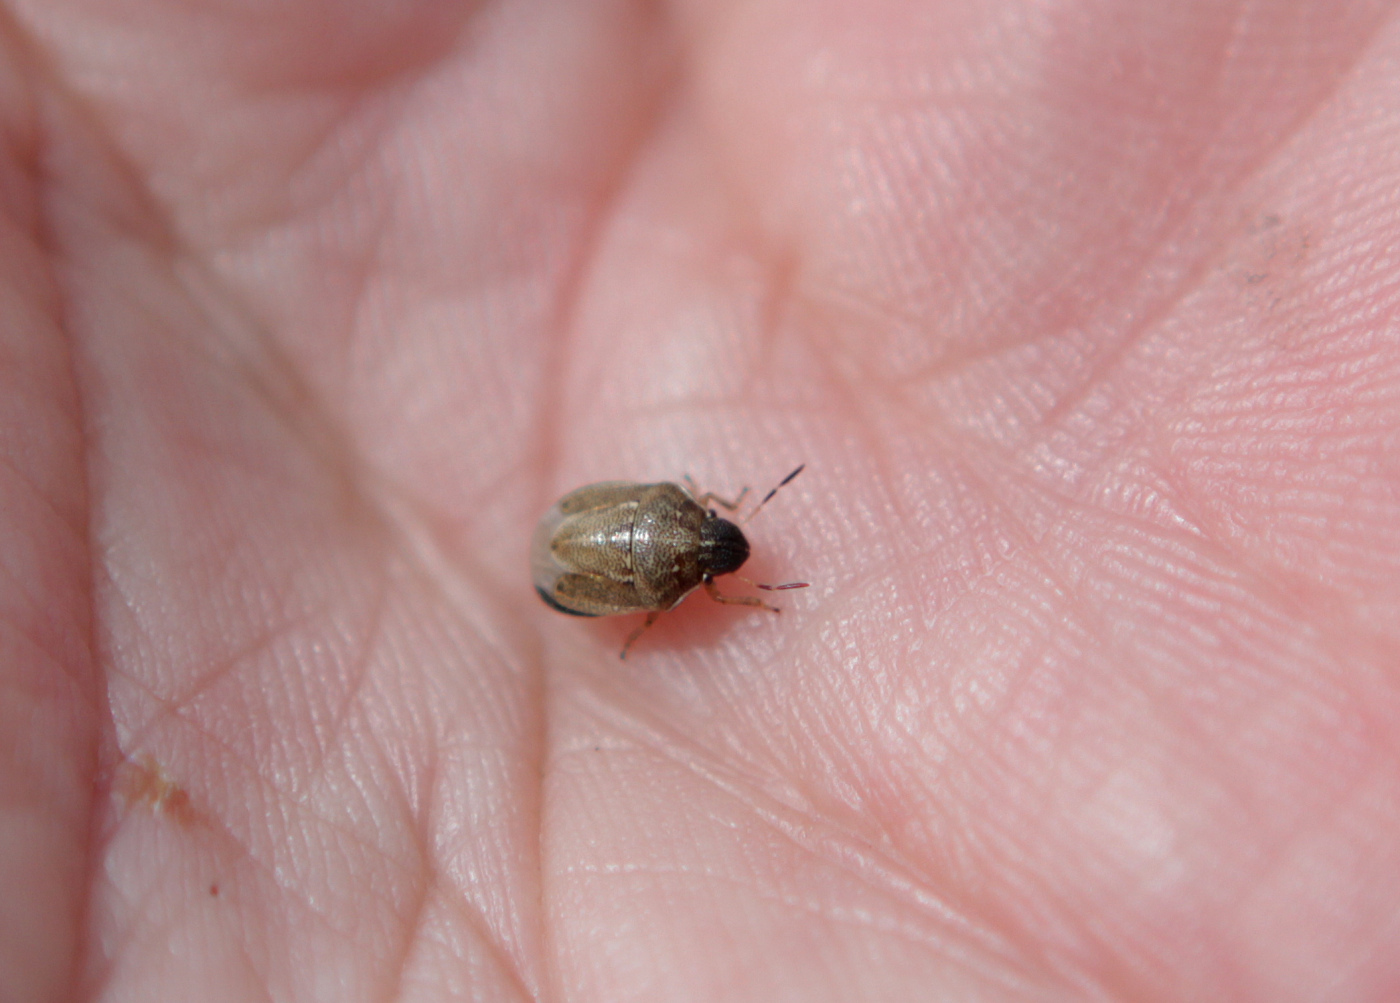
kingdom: Animalia
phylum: Arthropoda
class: Insecta
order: Hemiptera
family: Pentatomidae
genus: Neottiglossa
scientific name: Neottiglossa pusilla
